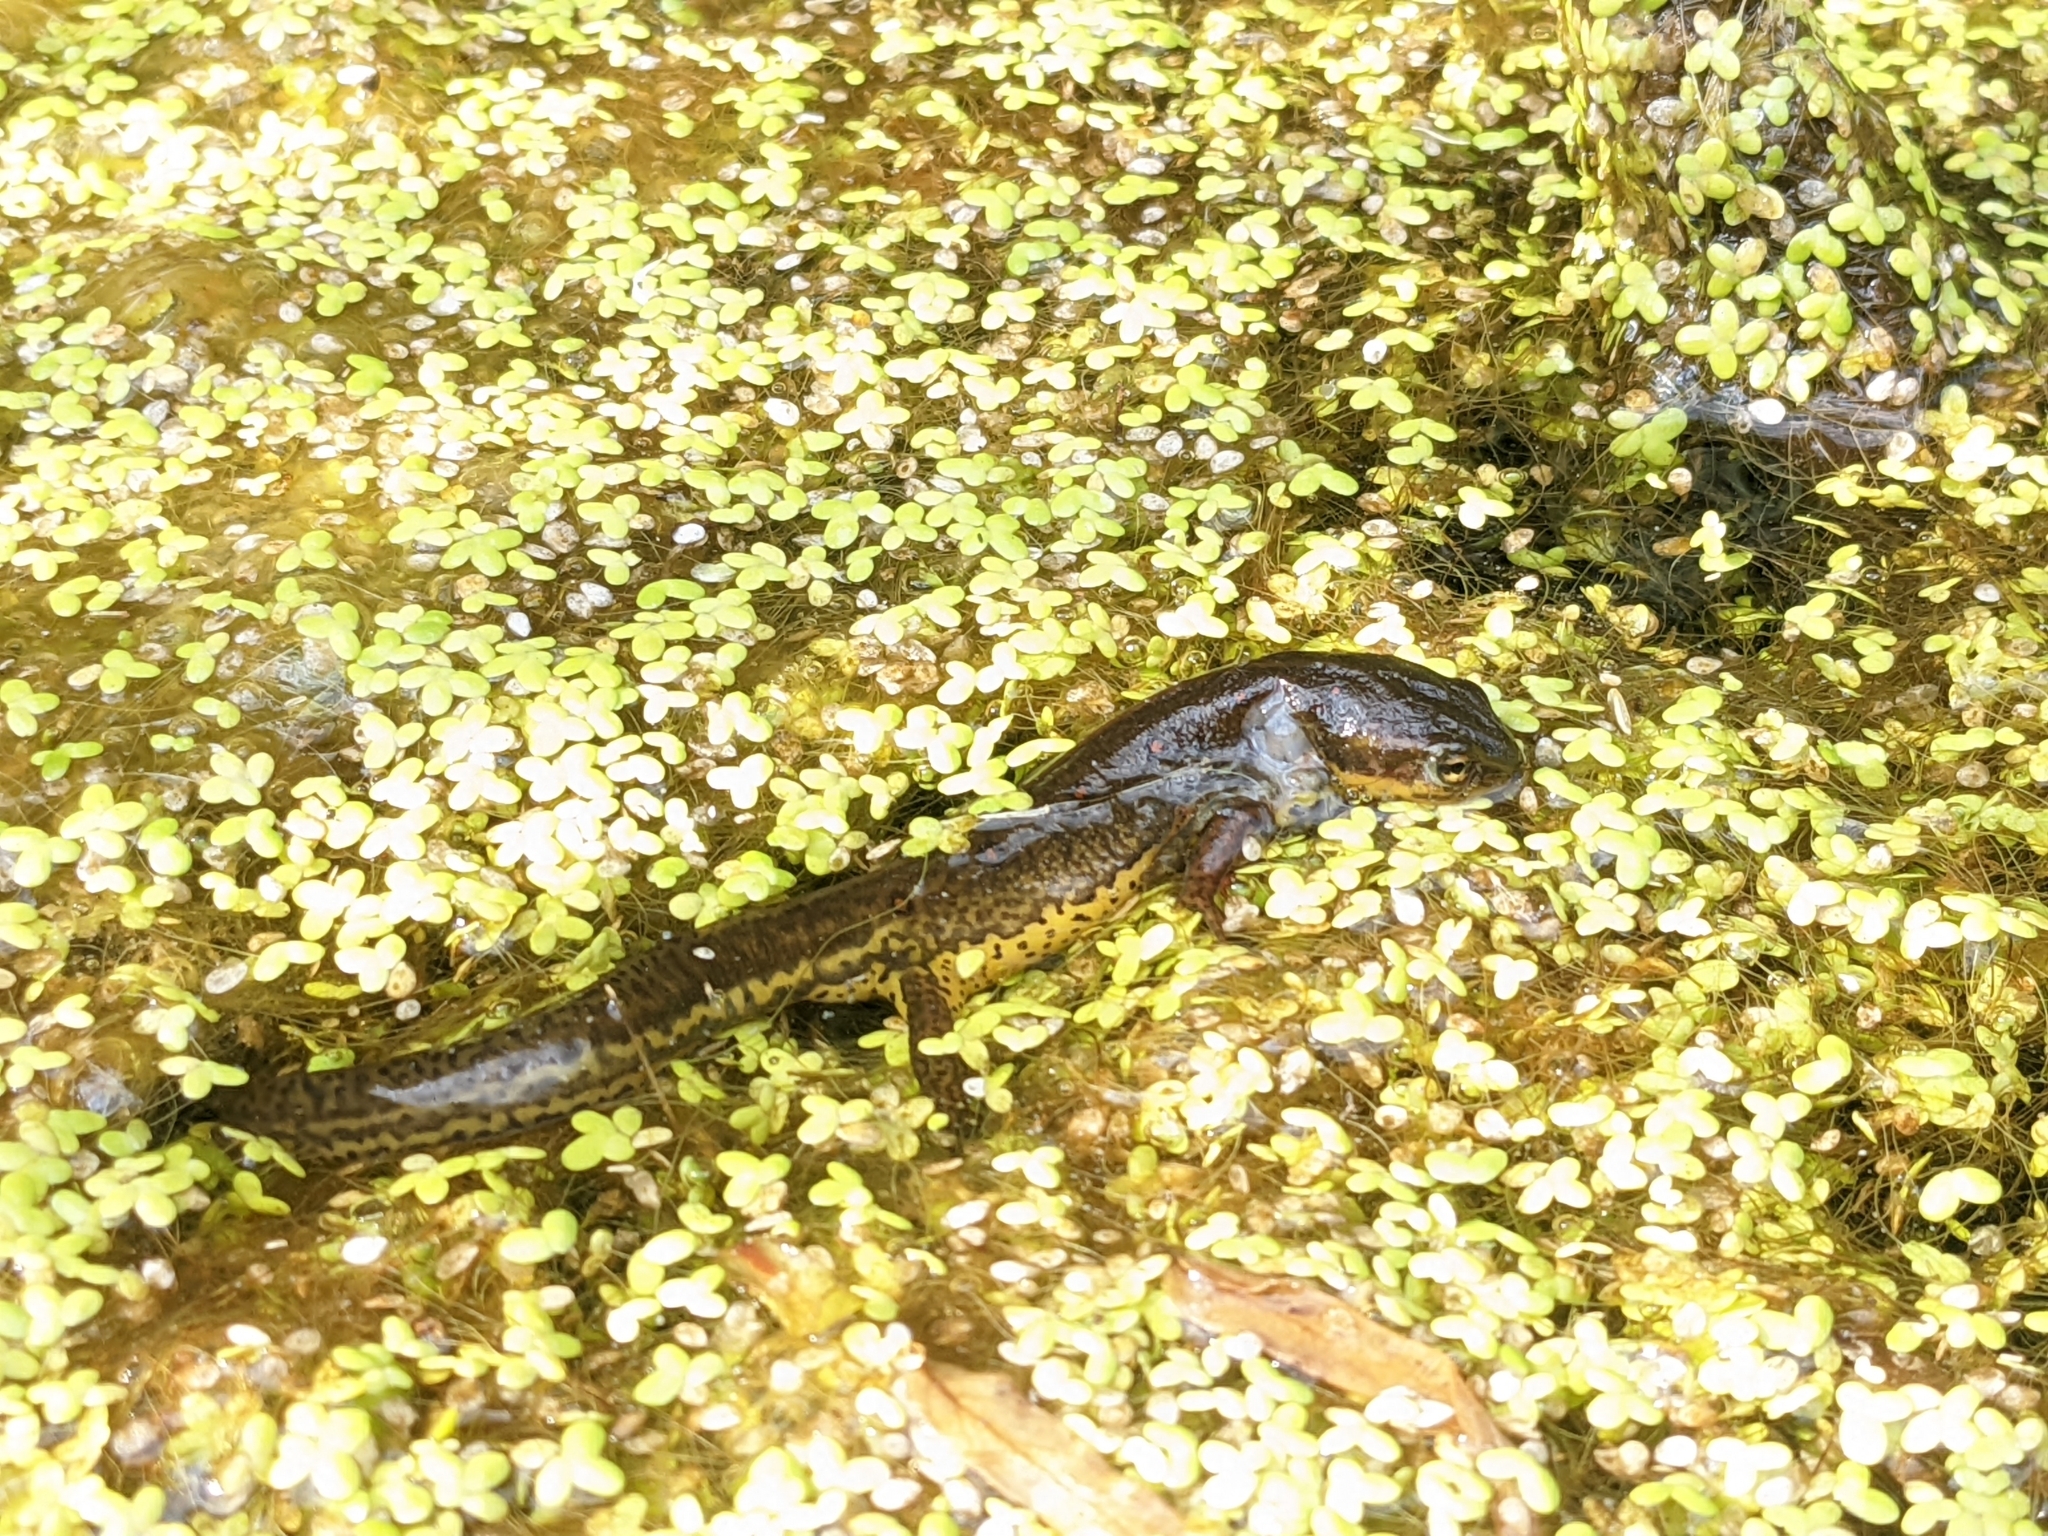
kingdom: Animalia
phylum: Chordata
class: Amphibia
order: Caudata
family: Salamandridae
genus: Notophthalmus
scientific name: Notophthalmus viridescens
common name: Eastern newt
